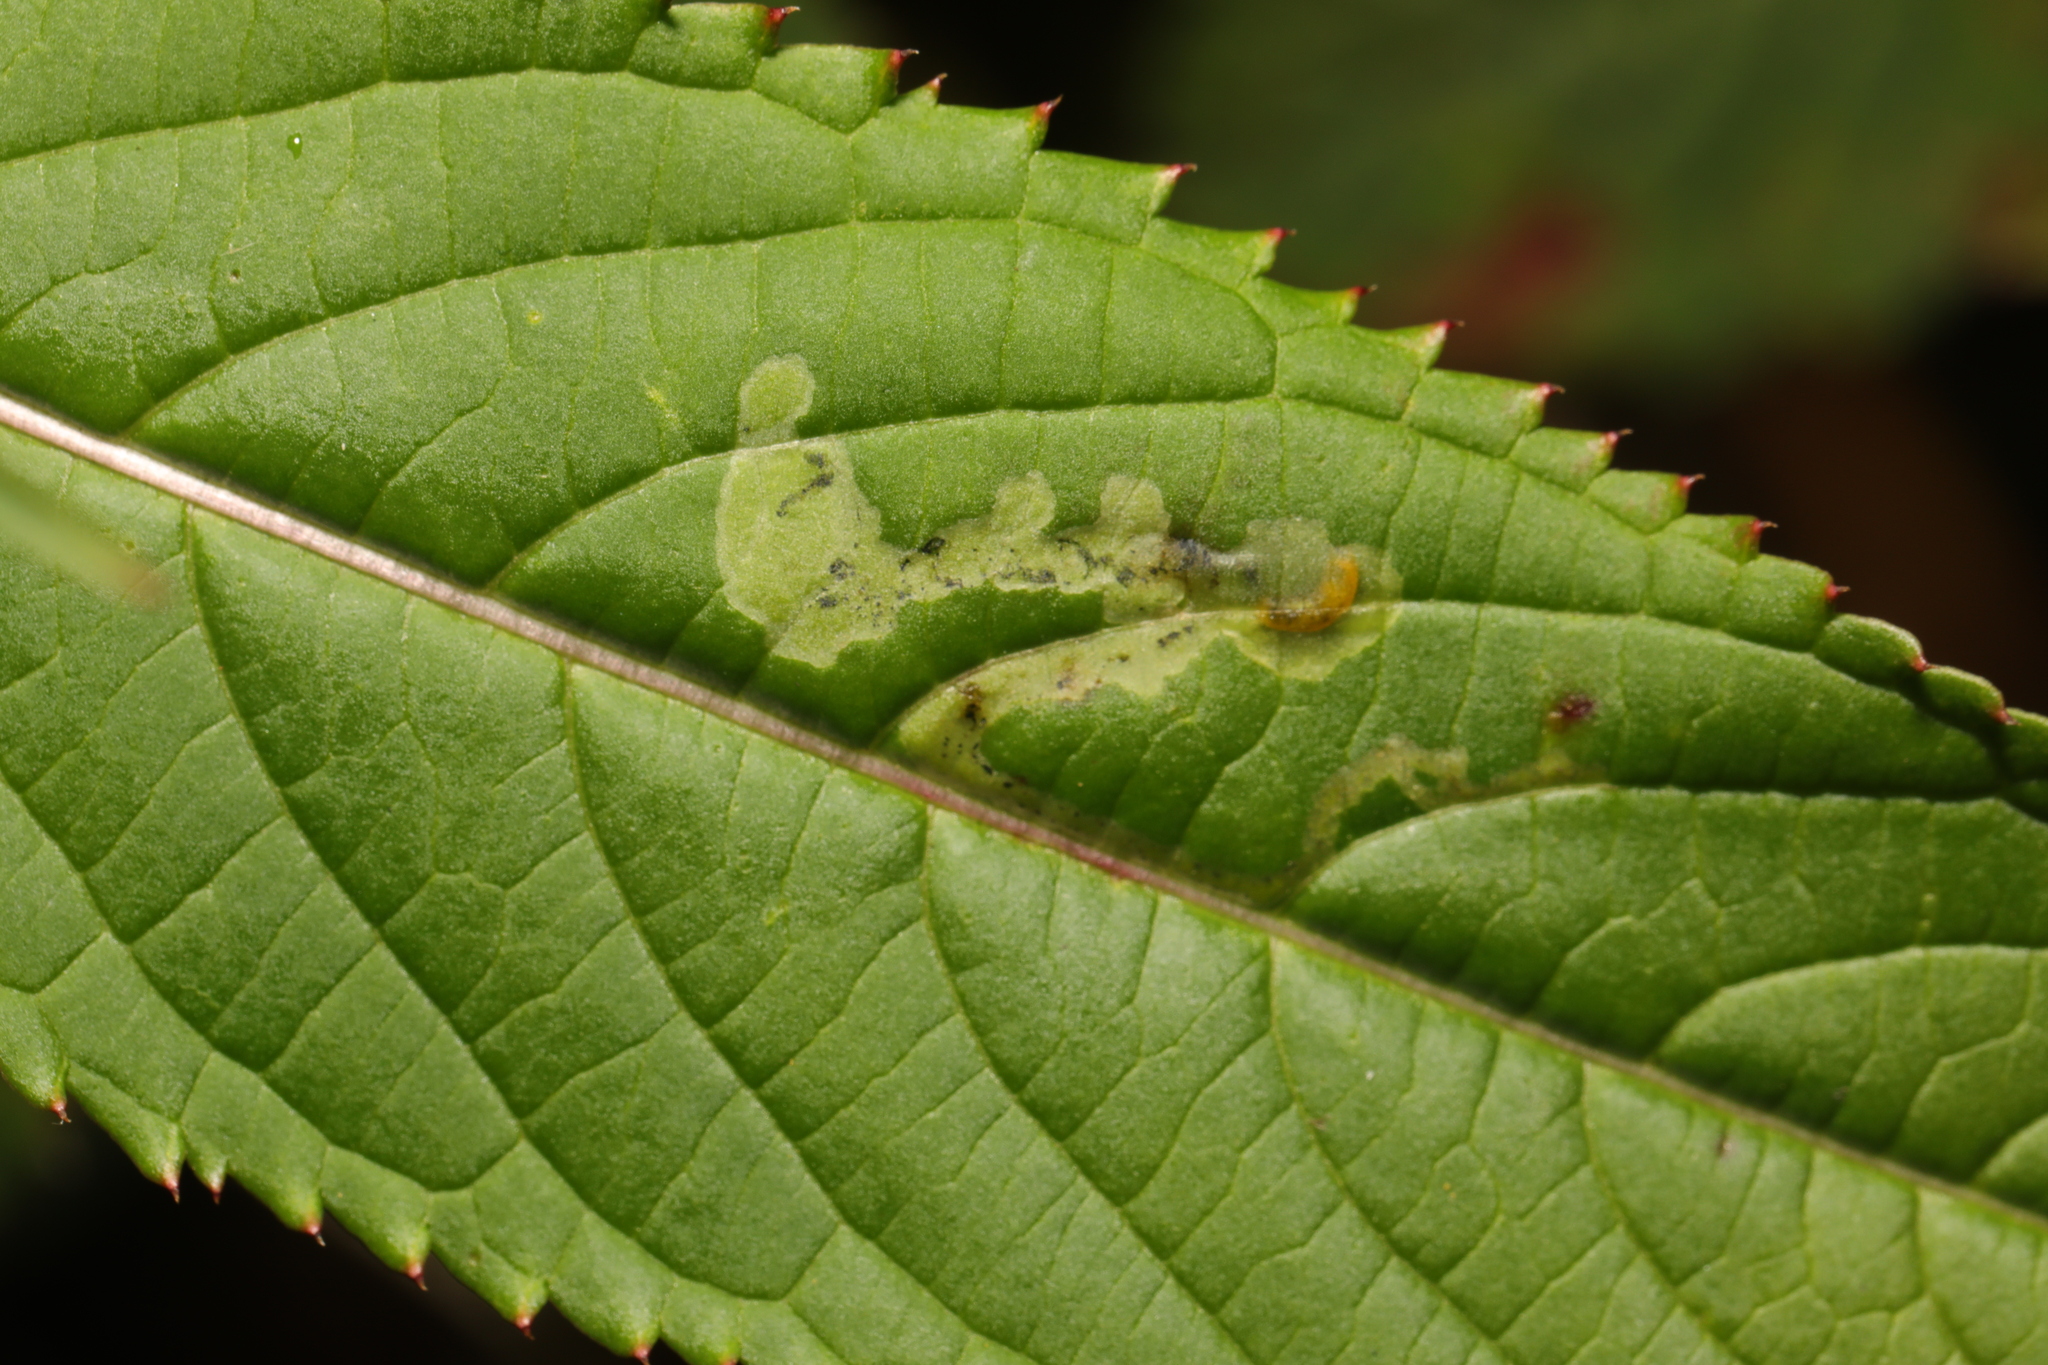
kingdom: Animalia
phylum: Arthropoda
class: Insecta
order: Diptera
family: Agromyzidae
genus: Phytoliriomyza
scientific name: Phytoliriomyza melampyga
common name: Jewelweed leaf-miner fly
